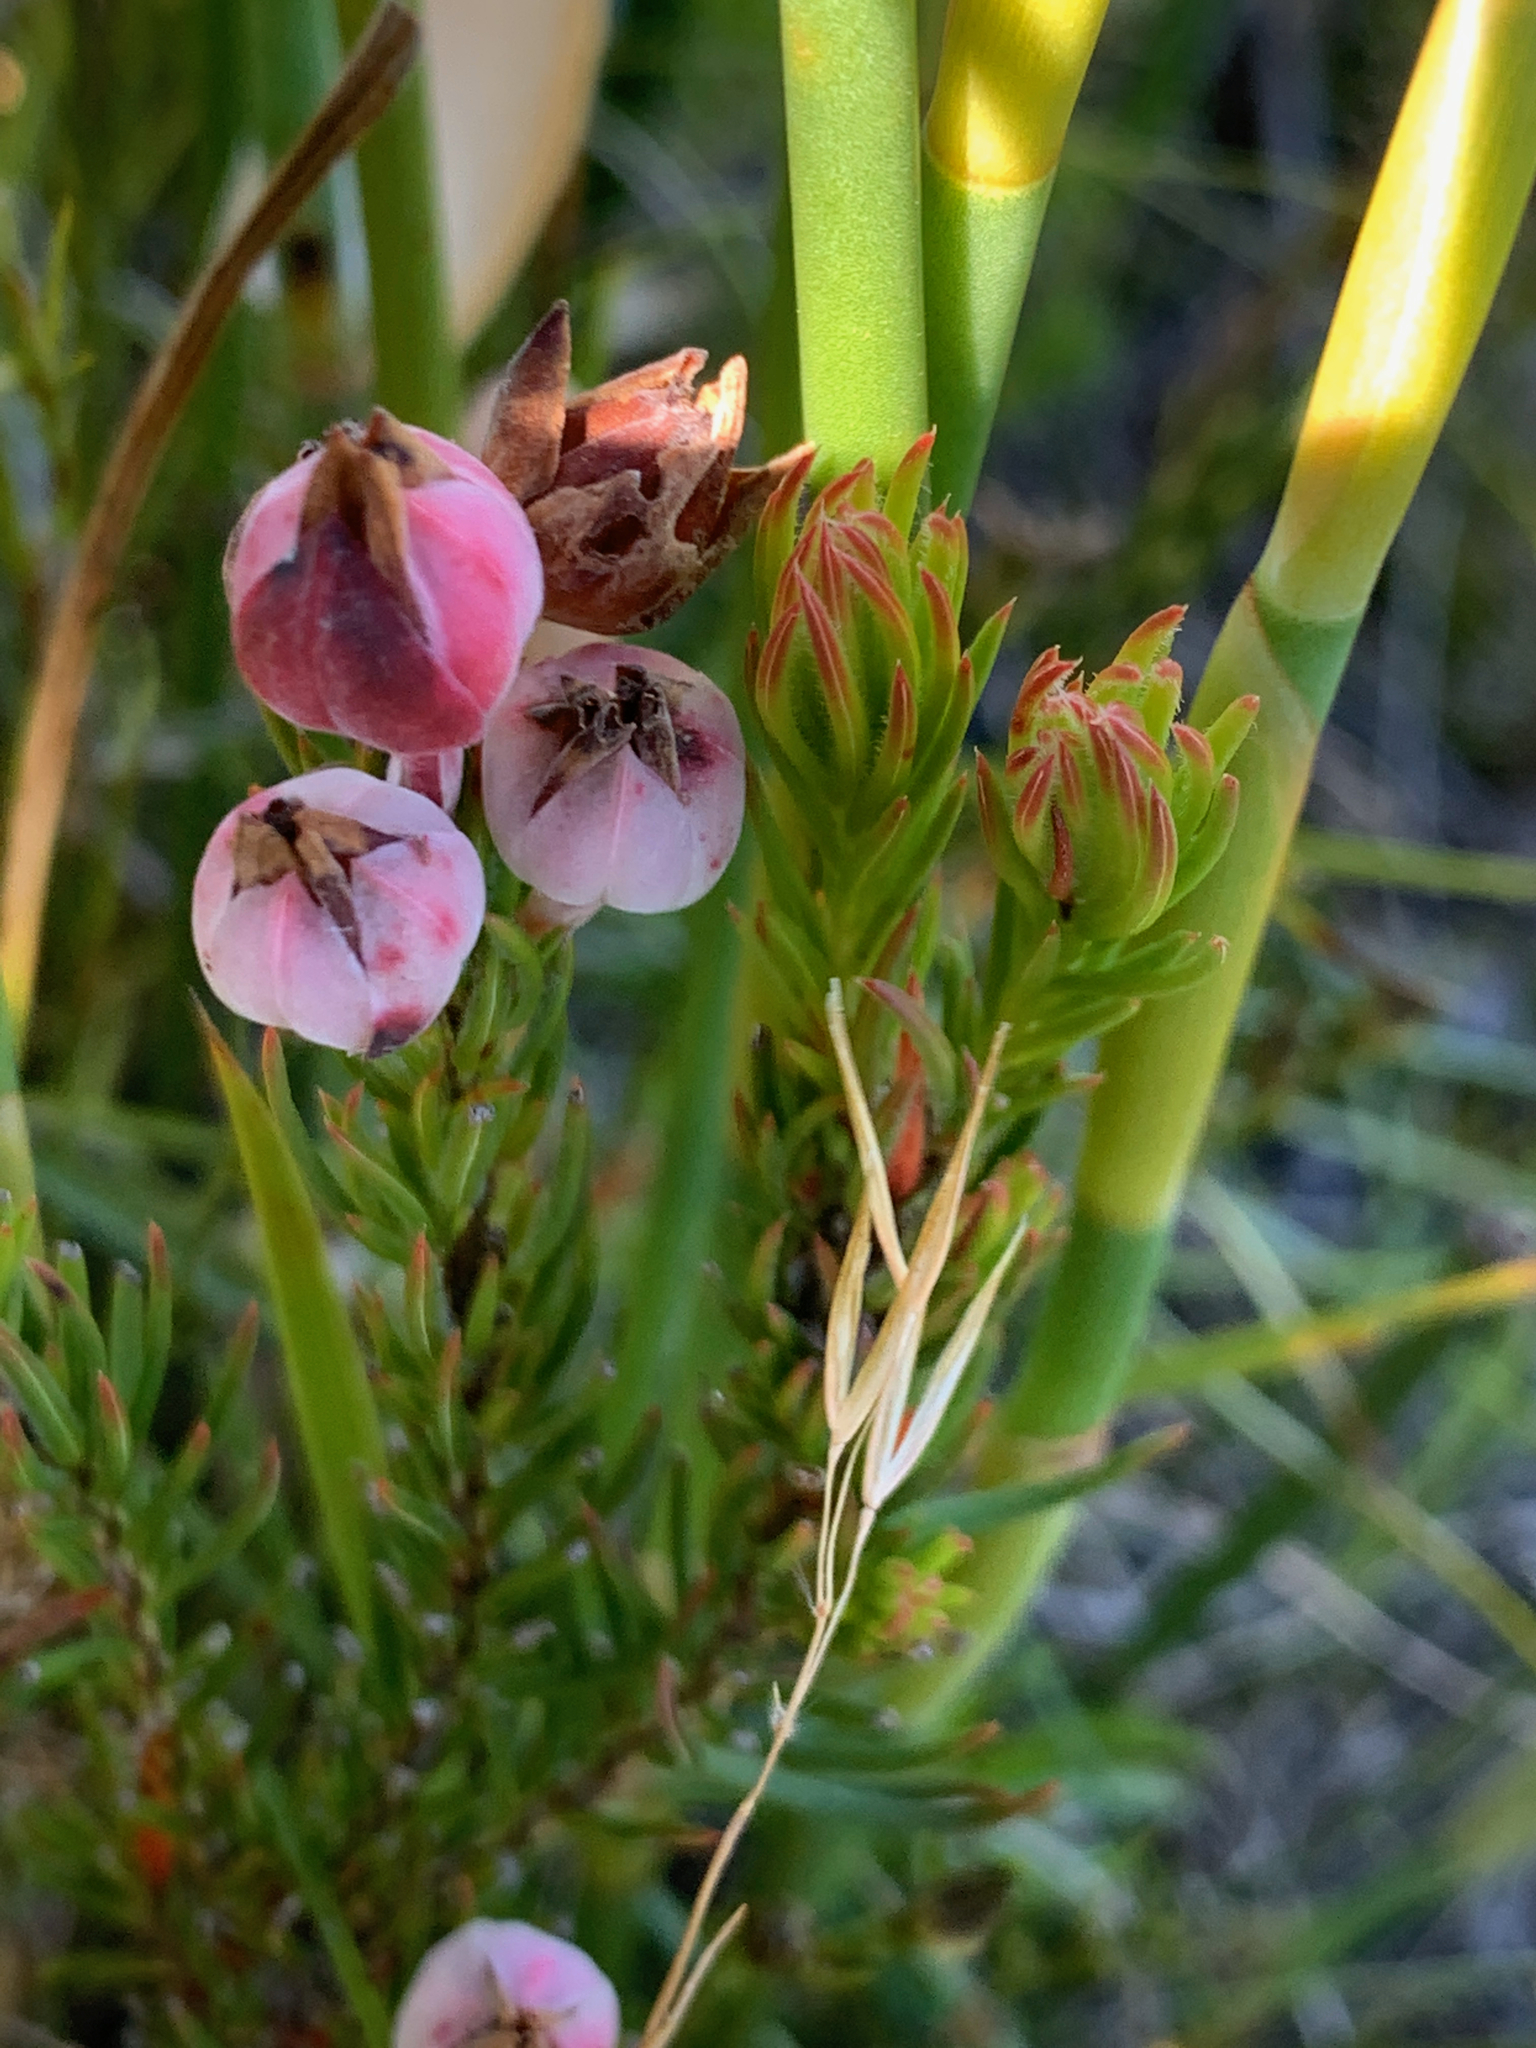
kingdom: Plantae
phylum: Tracheophyta
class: Magnoliopsida
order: Ericales
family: Ericaceae
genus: Erica
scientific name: Erica holosericea
